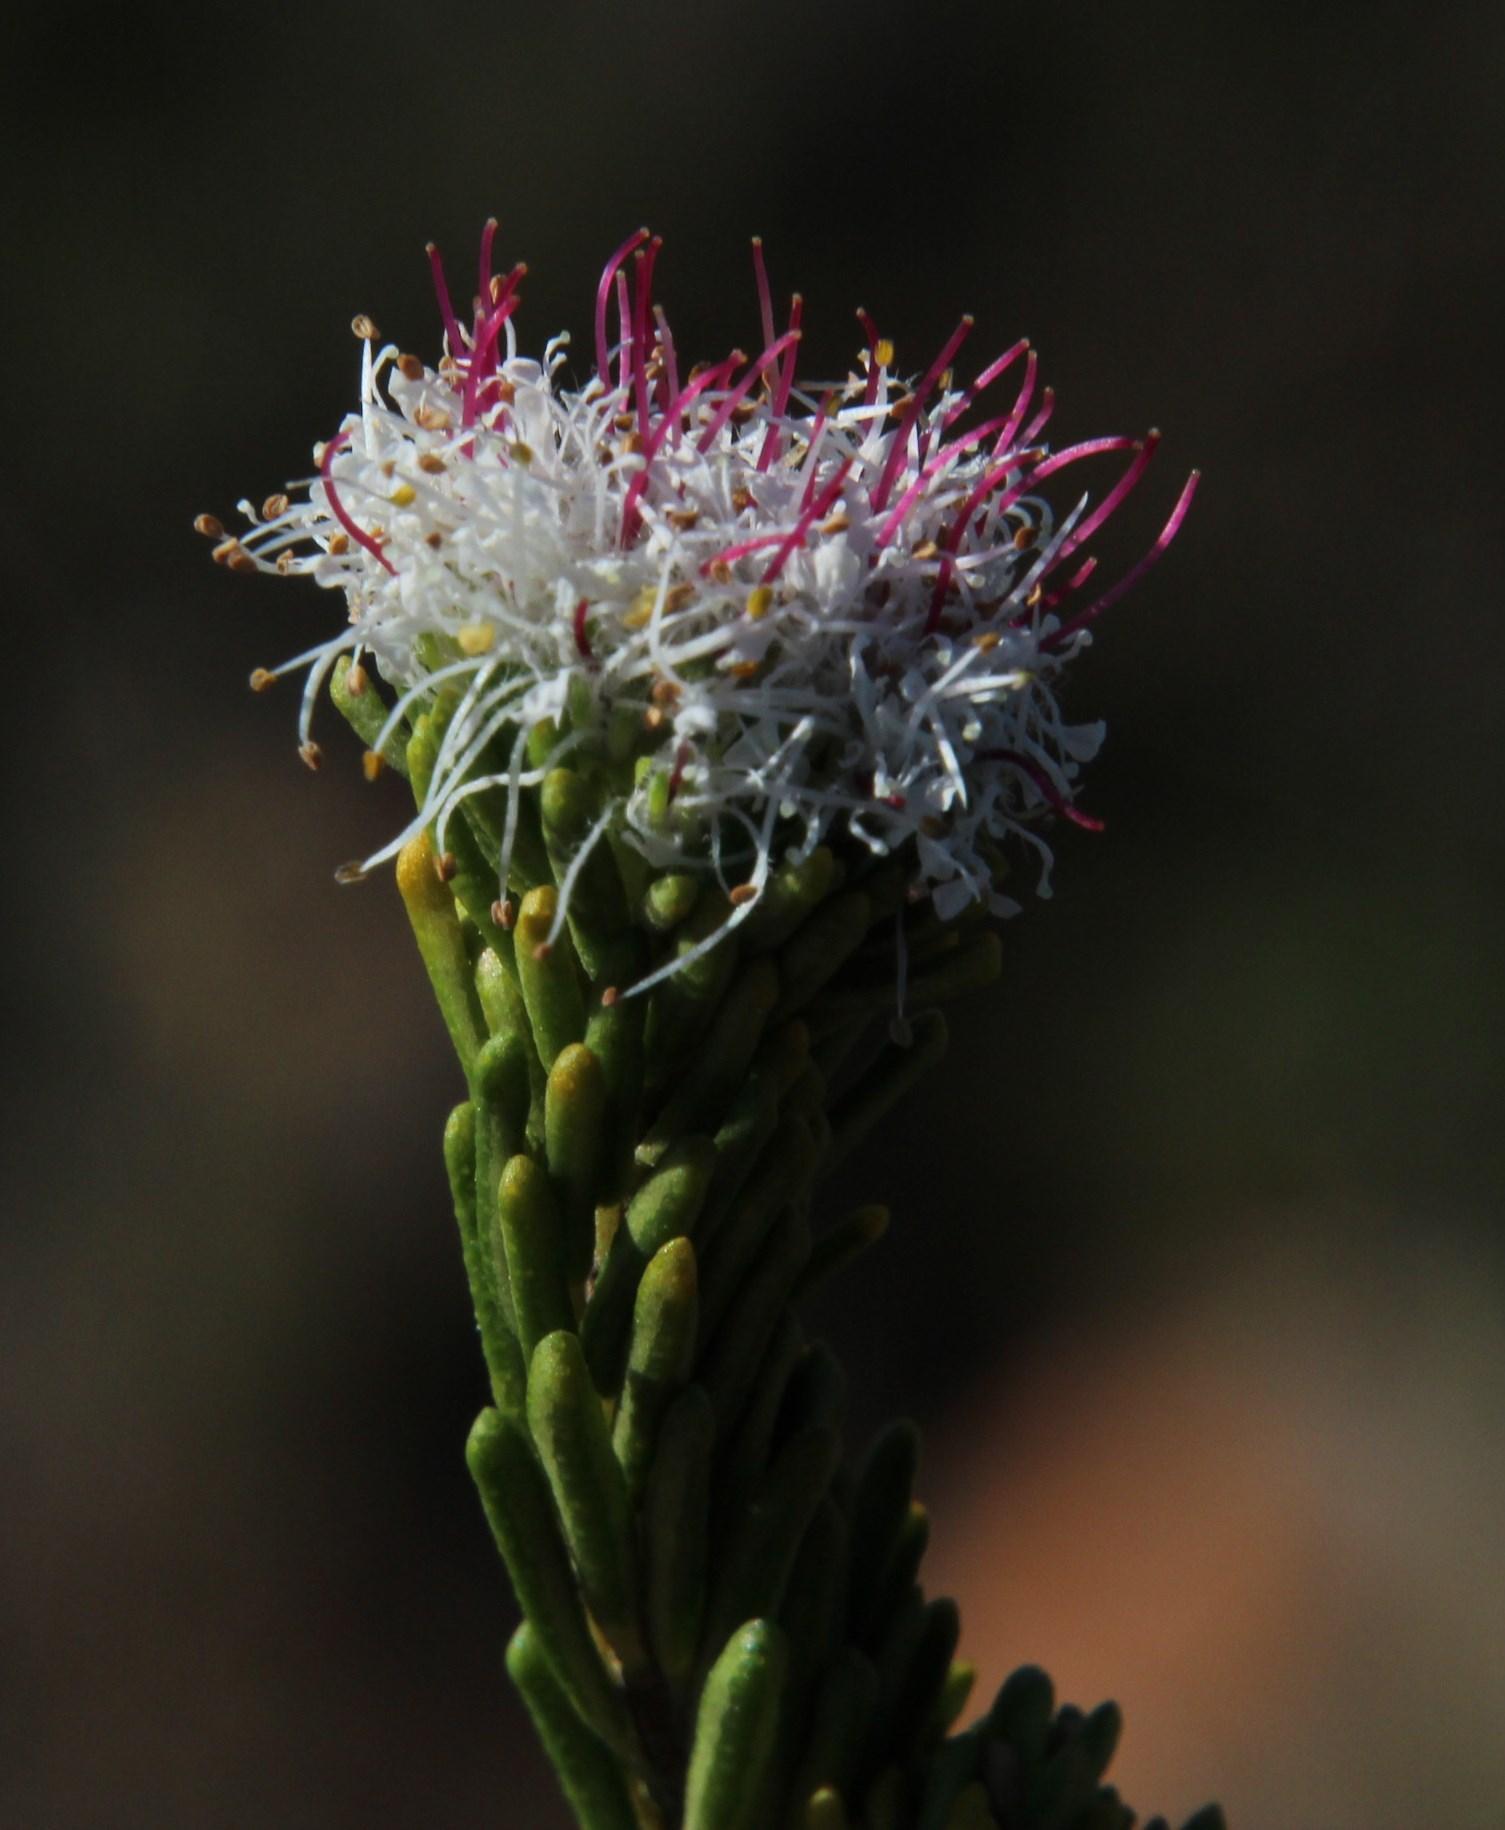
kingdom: Plantae
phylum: Tracheophyta
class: Magnoliopsida
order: Sapindales
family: Rutaceae
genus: Agathosma
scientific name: Agathosma gonaquensis
